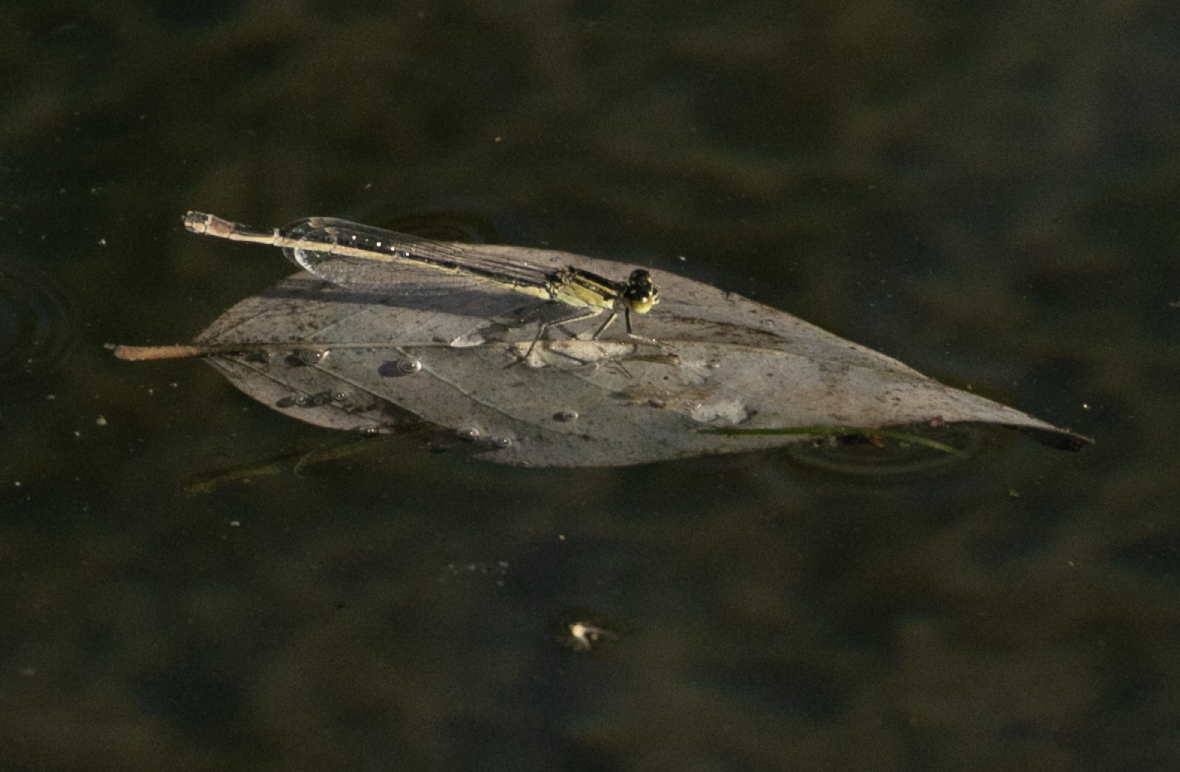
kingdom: Animalia
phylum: Arthropoda
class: Insecta
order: Odonata
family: Coenagrionidae
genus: Ischnura
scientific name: Ischnura elegans
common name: Blue-tailed damselfly
